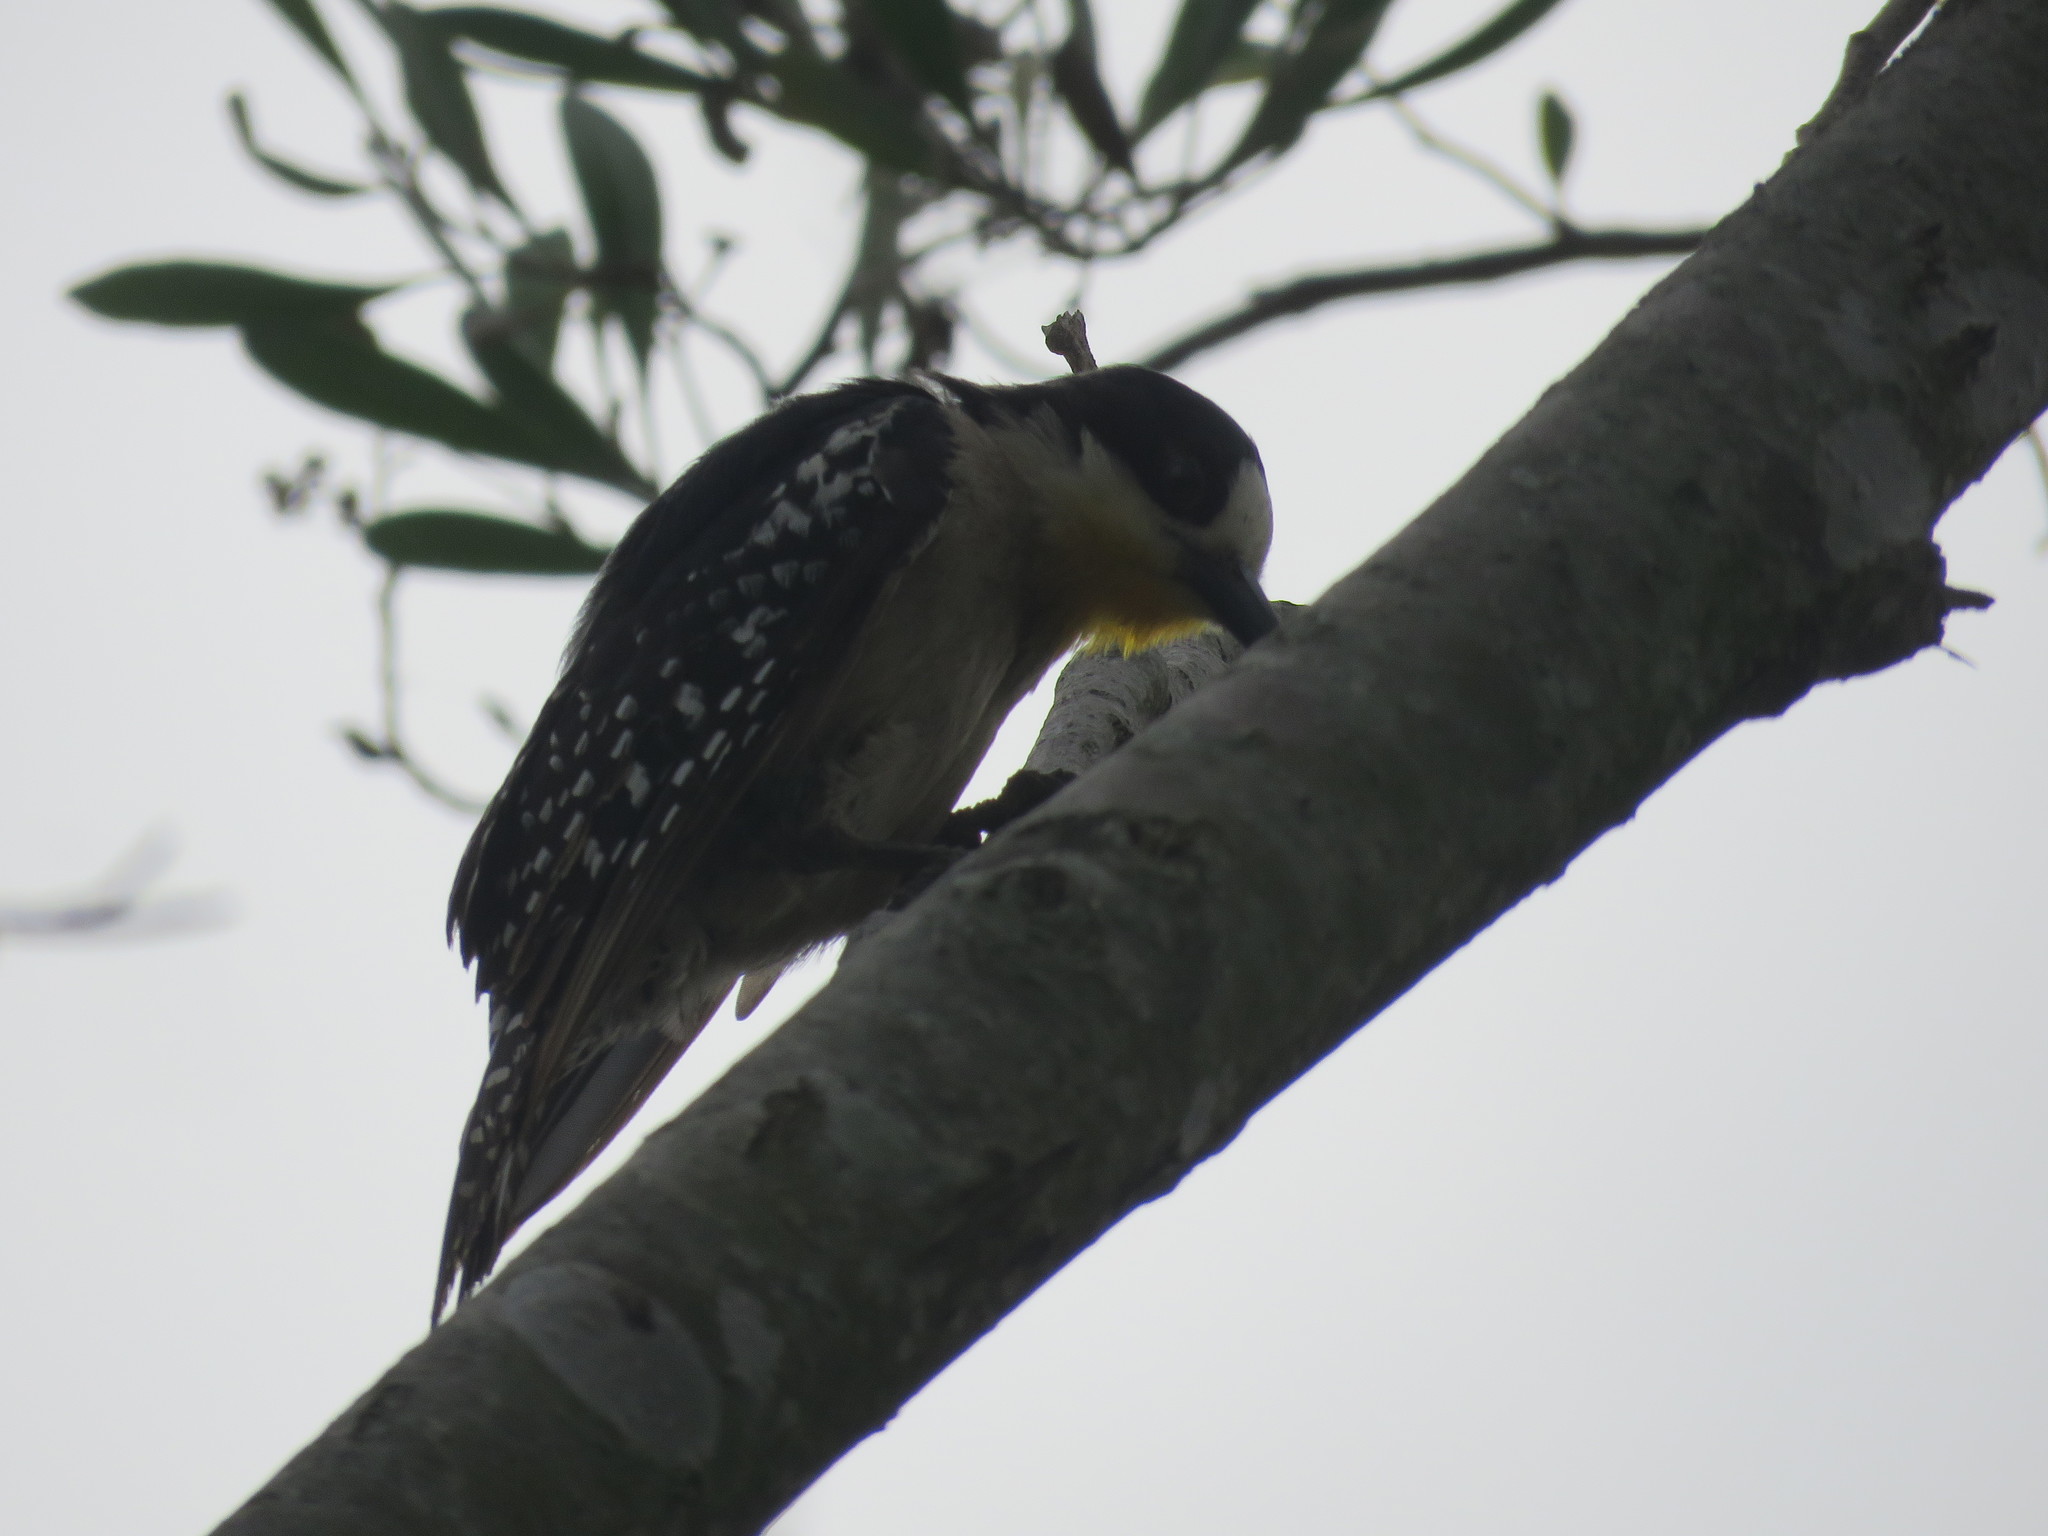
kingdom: Animalia
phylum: Chordata
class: Aves
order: Piciformes
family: Picidae
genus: Melanerpes
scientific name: Melanerpes cactorum
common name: White-fronted woodpecker
